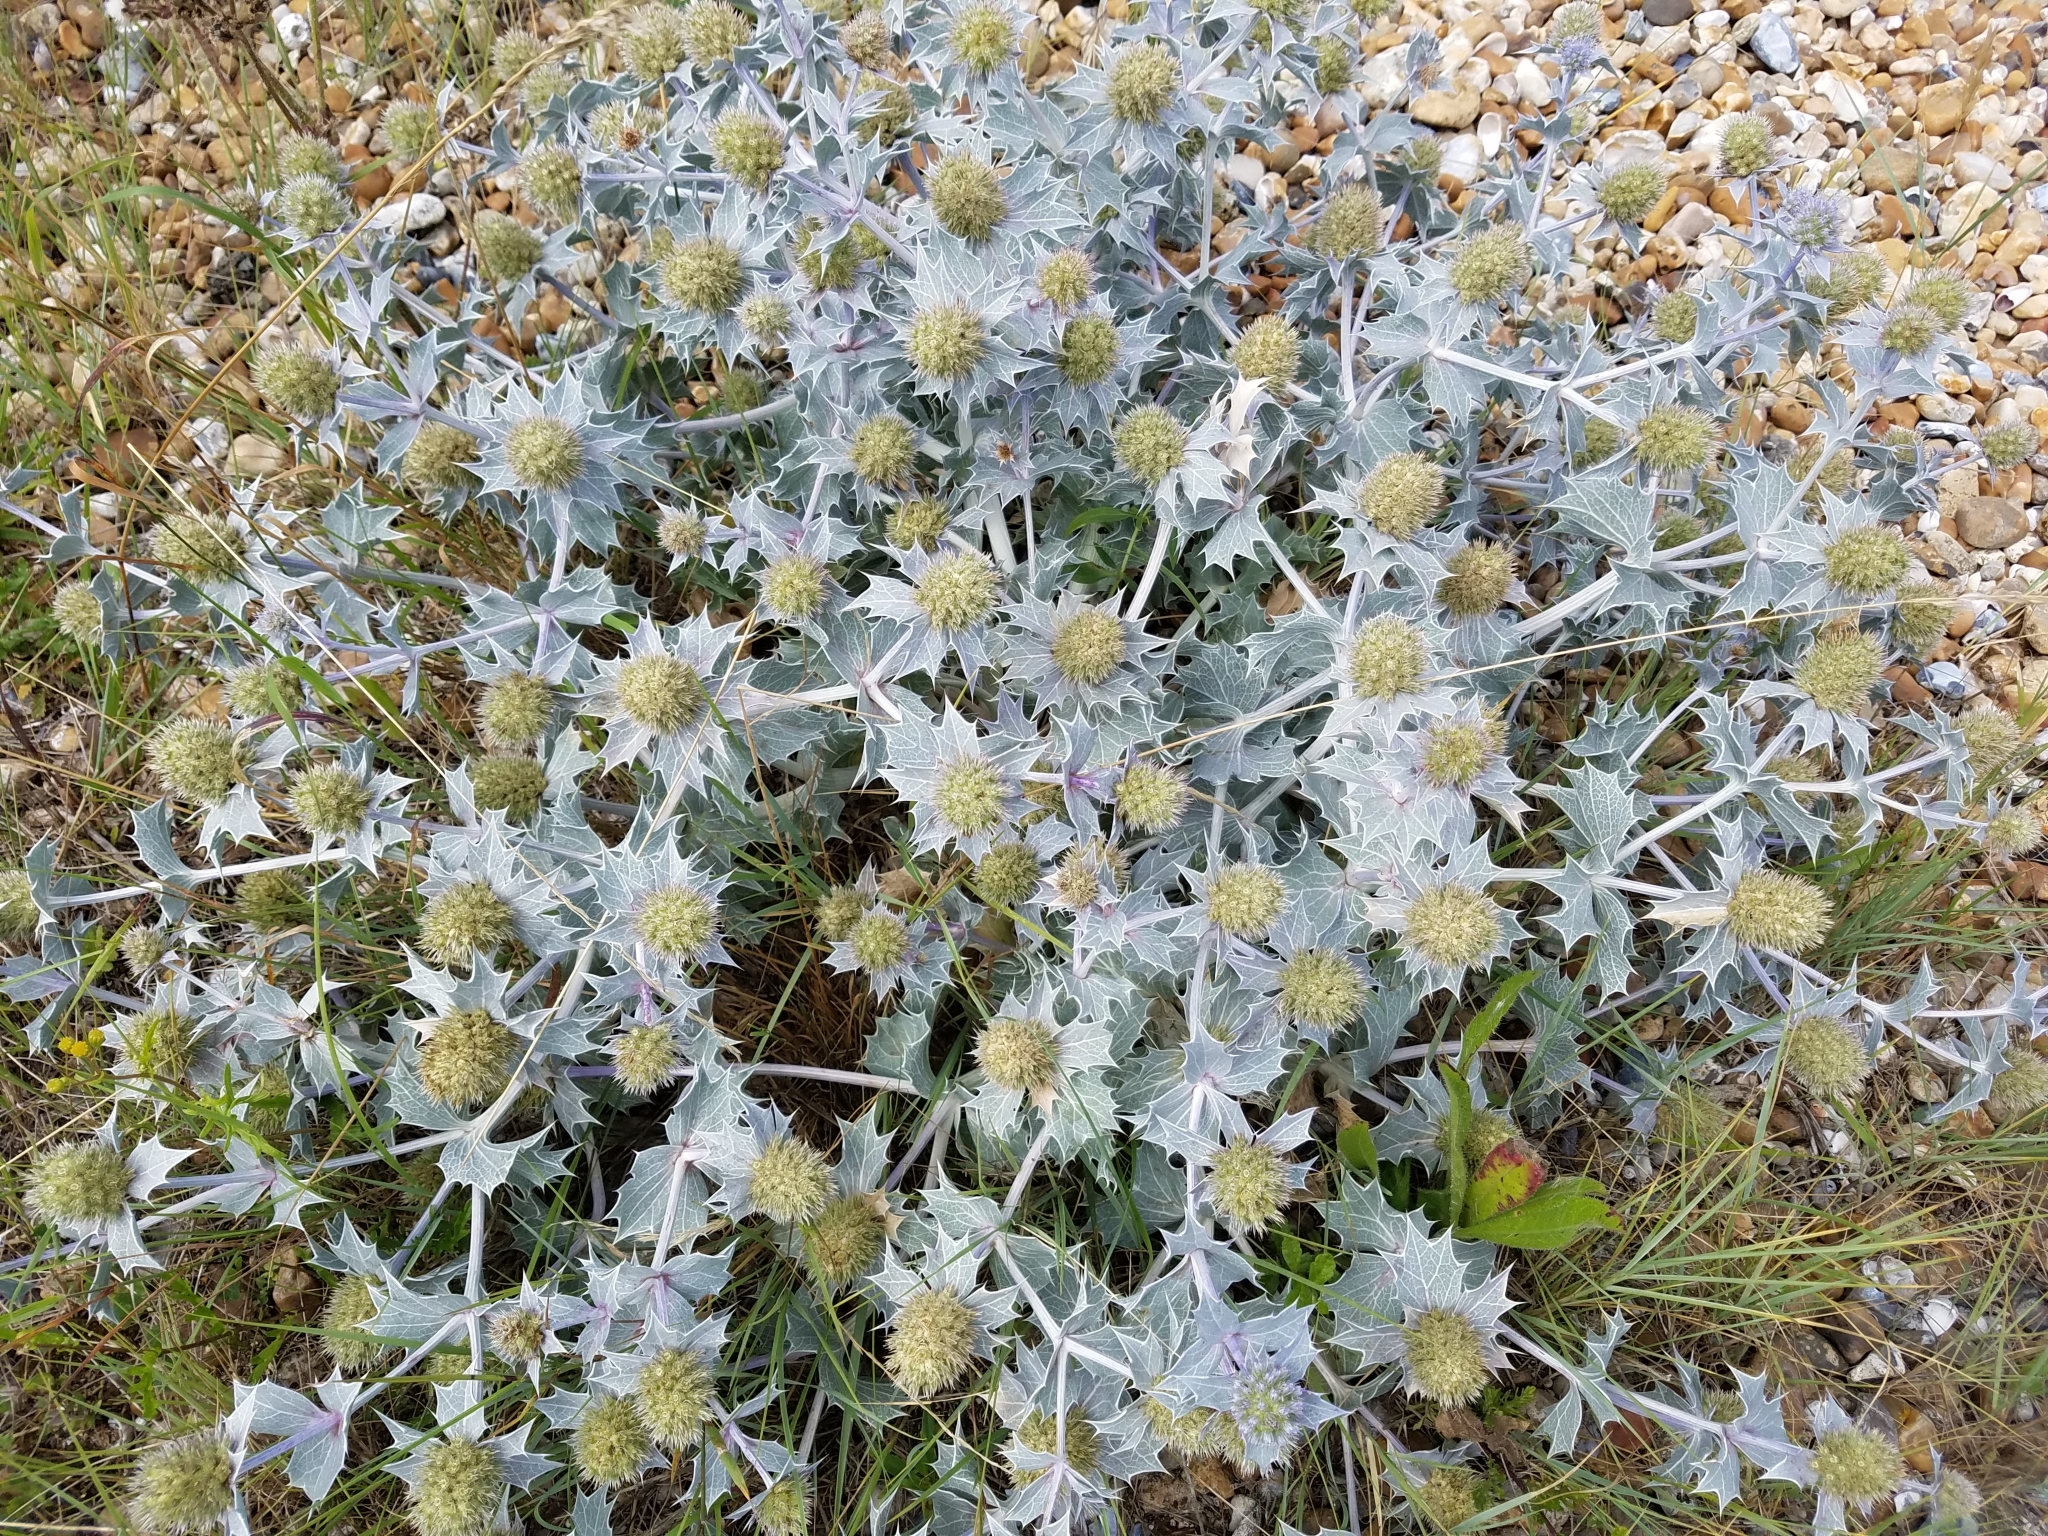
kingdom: Plantae
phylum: Tracheophyta
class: Magnoliopsida
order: Apiales
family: Apiaceae
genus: Eryngium
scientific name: Eryngium maritimum
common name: Sea-holly
